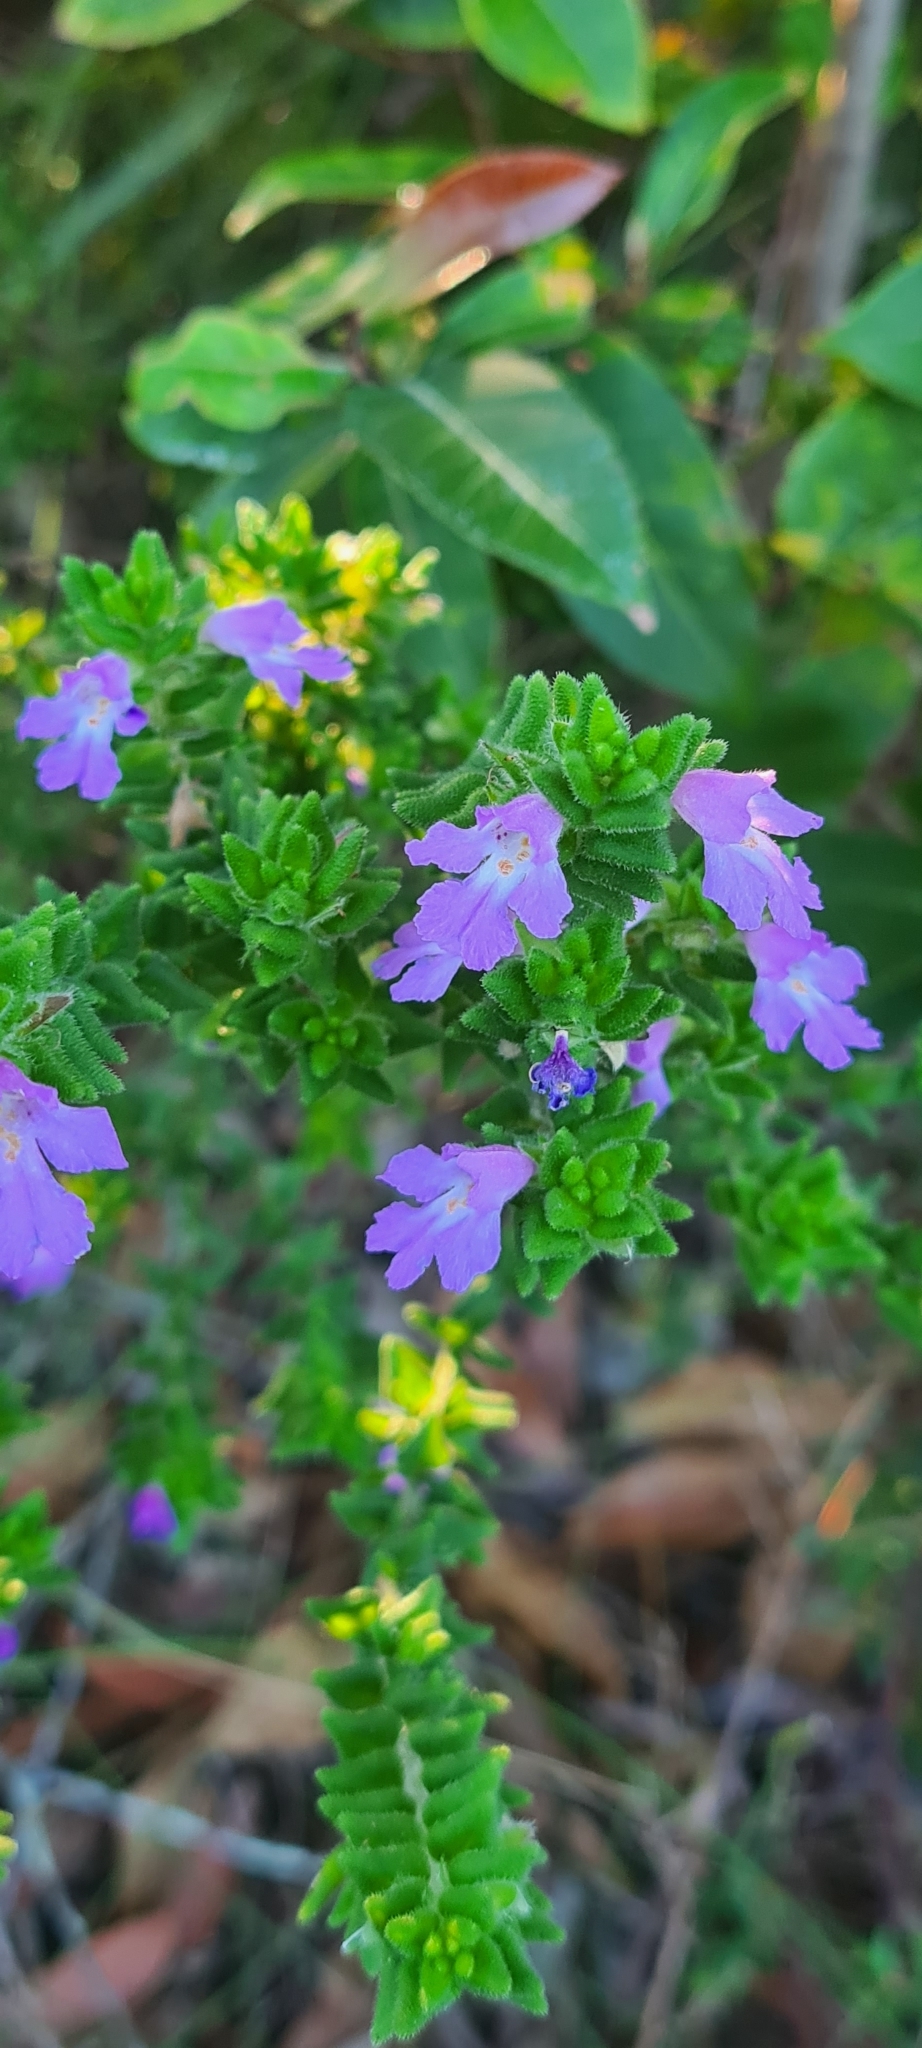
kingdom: Plantae
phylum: Tracheophyta
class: Magnoliopsida
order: Lamiales
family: Lamiaceae
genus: Prostanthera
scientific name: Prostanthera densa
